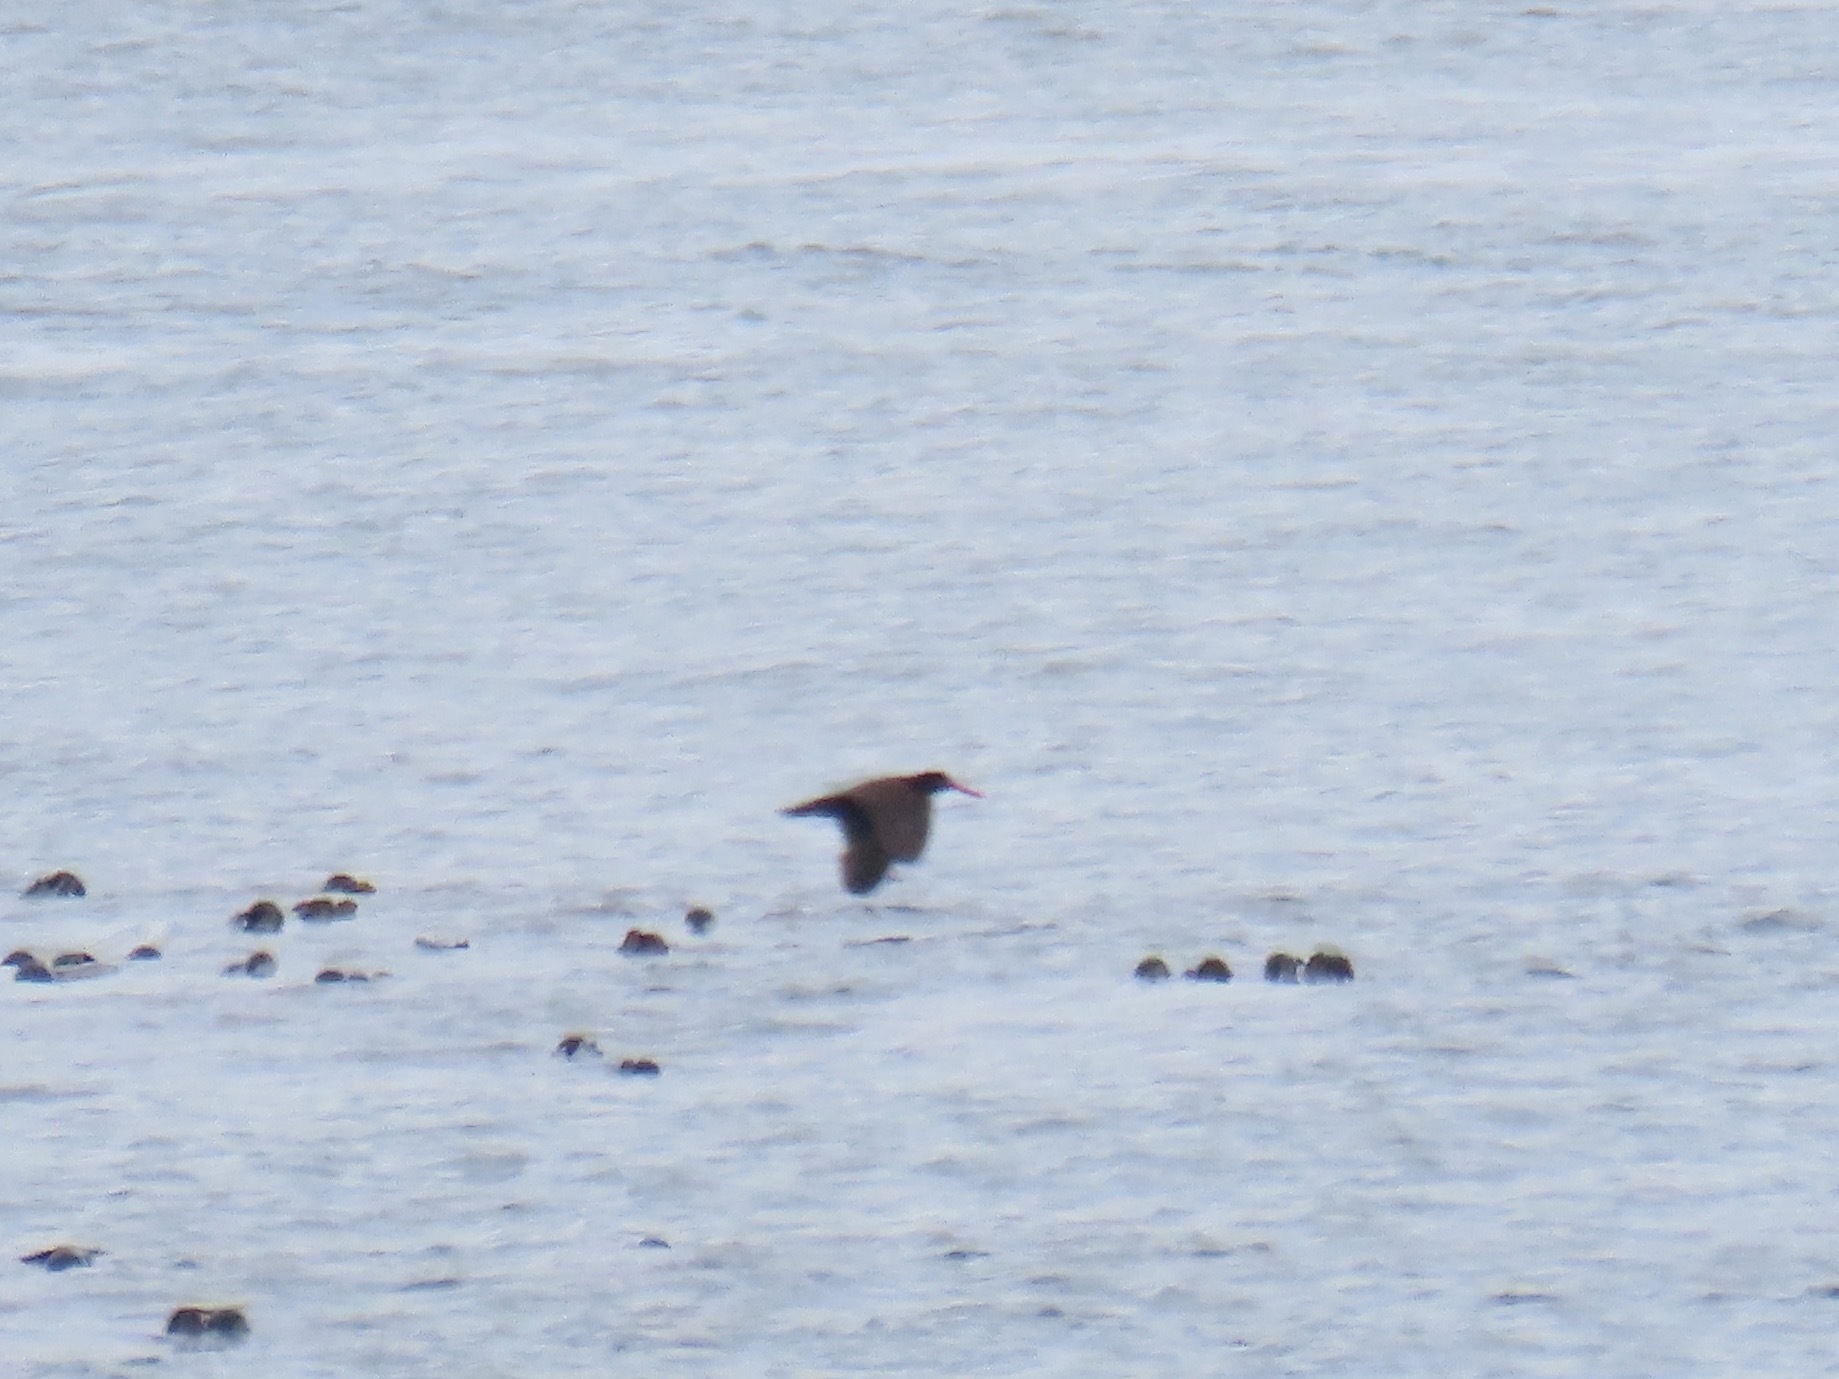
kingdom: Animalia
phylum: Chordata
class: Aves
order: Charadriiformes
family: Haematopodidae
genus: Haematopus
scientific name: Haematopus bachmani
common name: Black oystercatcher
